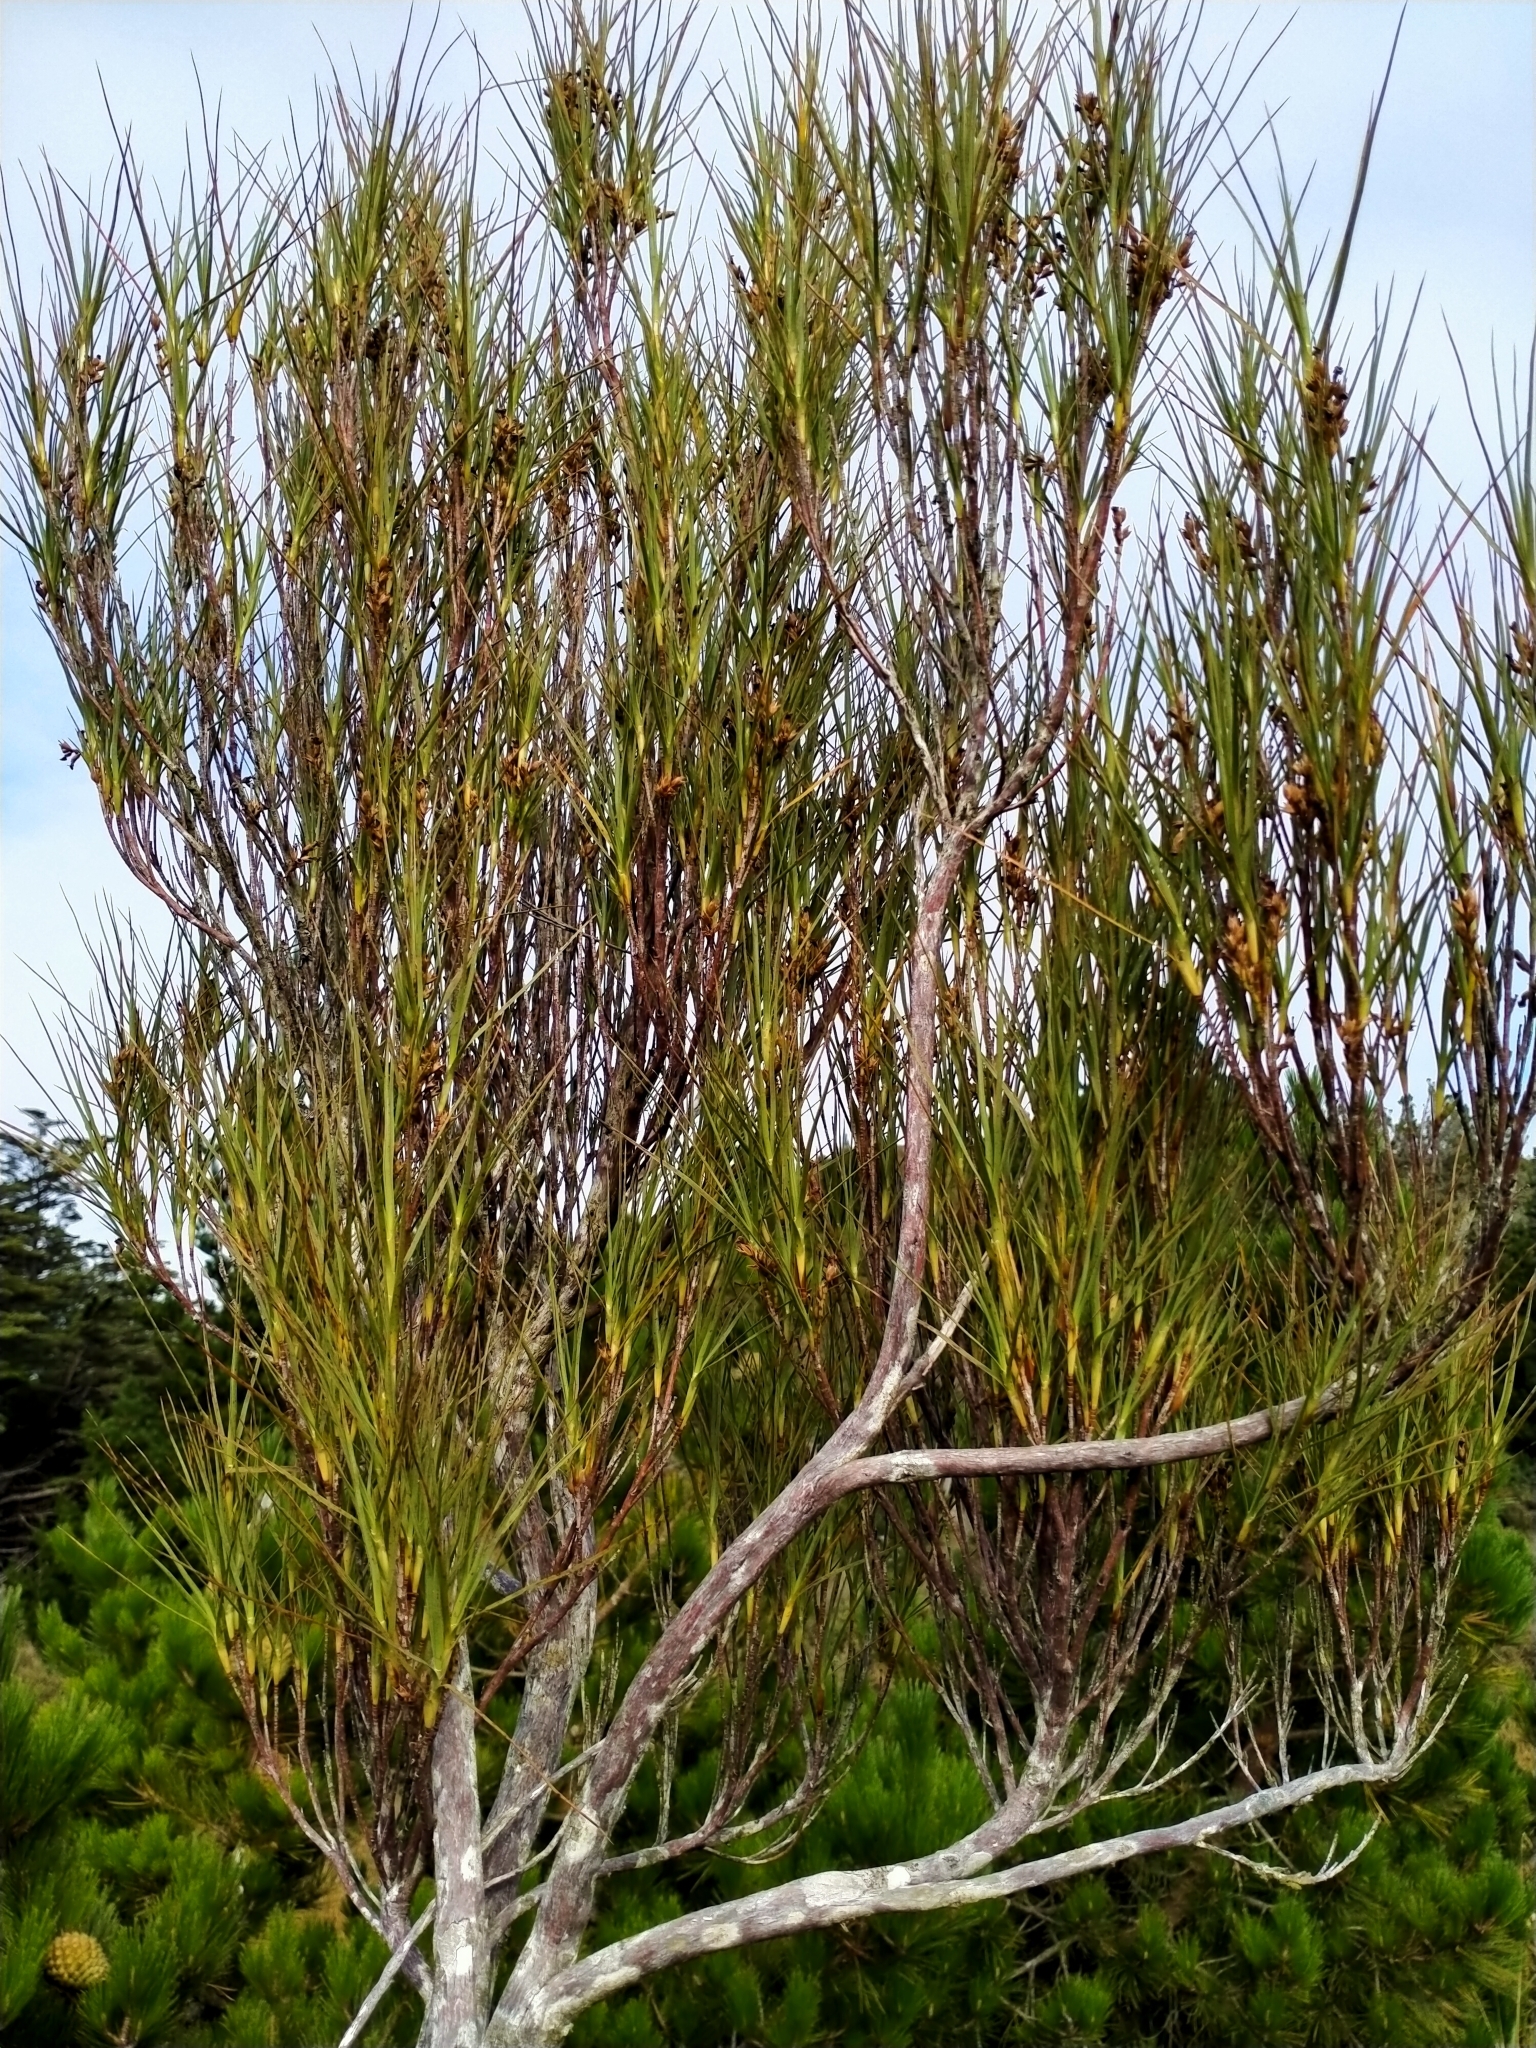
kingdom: Plantae
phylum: Tracheophyta
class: Magnoliopsida
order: Ericales
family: Ericaceae
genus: Dracophyllum
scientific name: Dracophyllum longifolium
